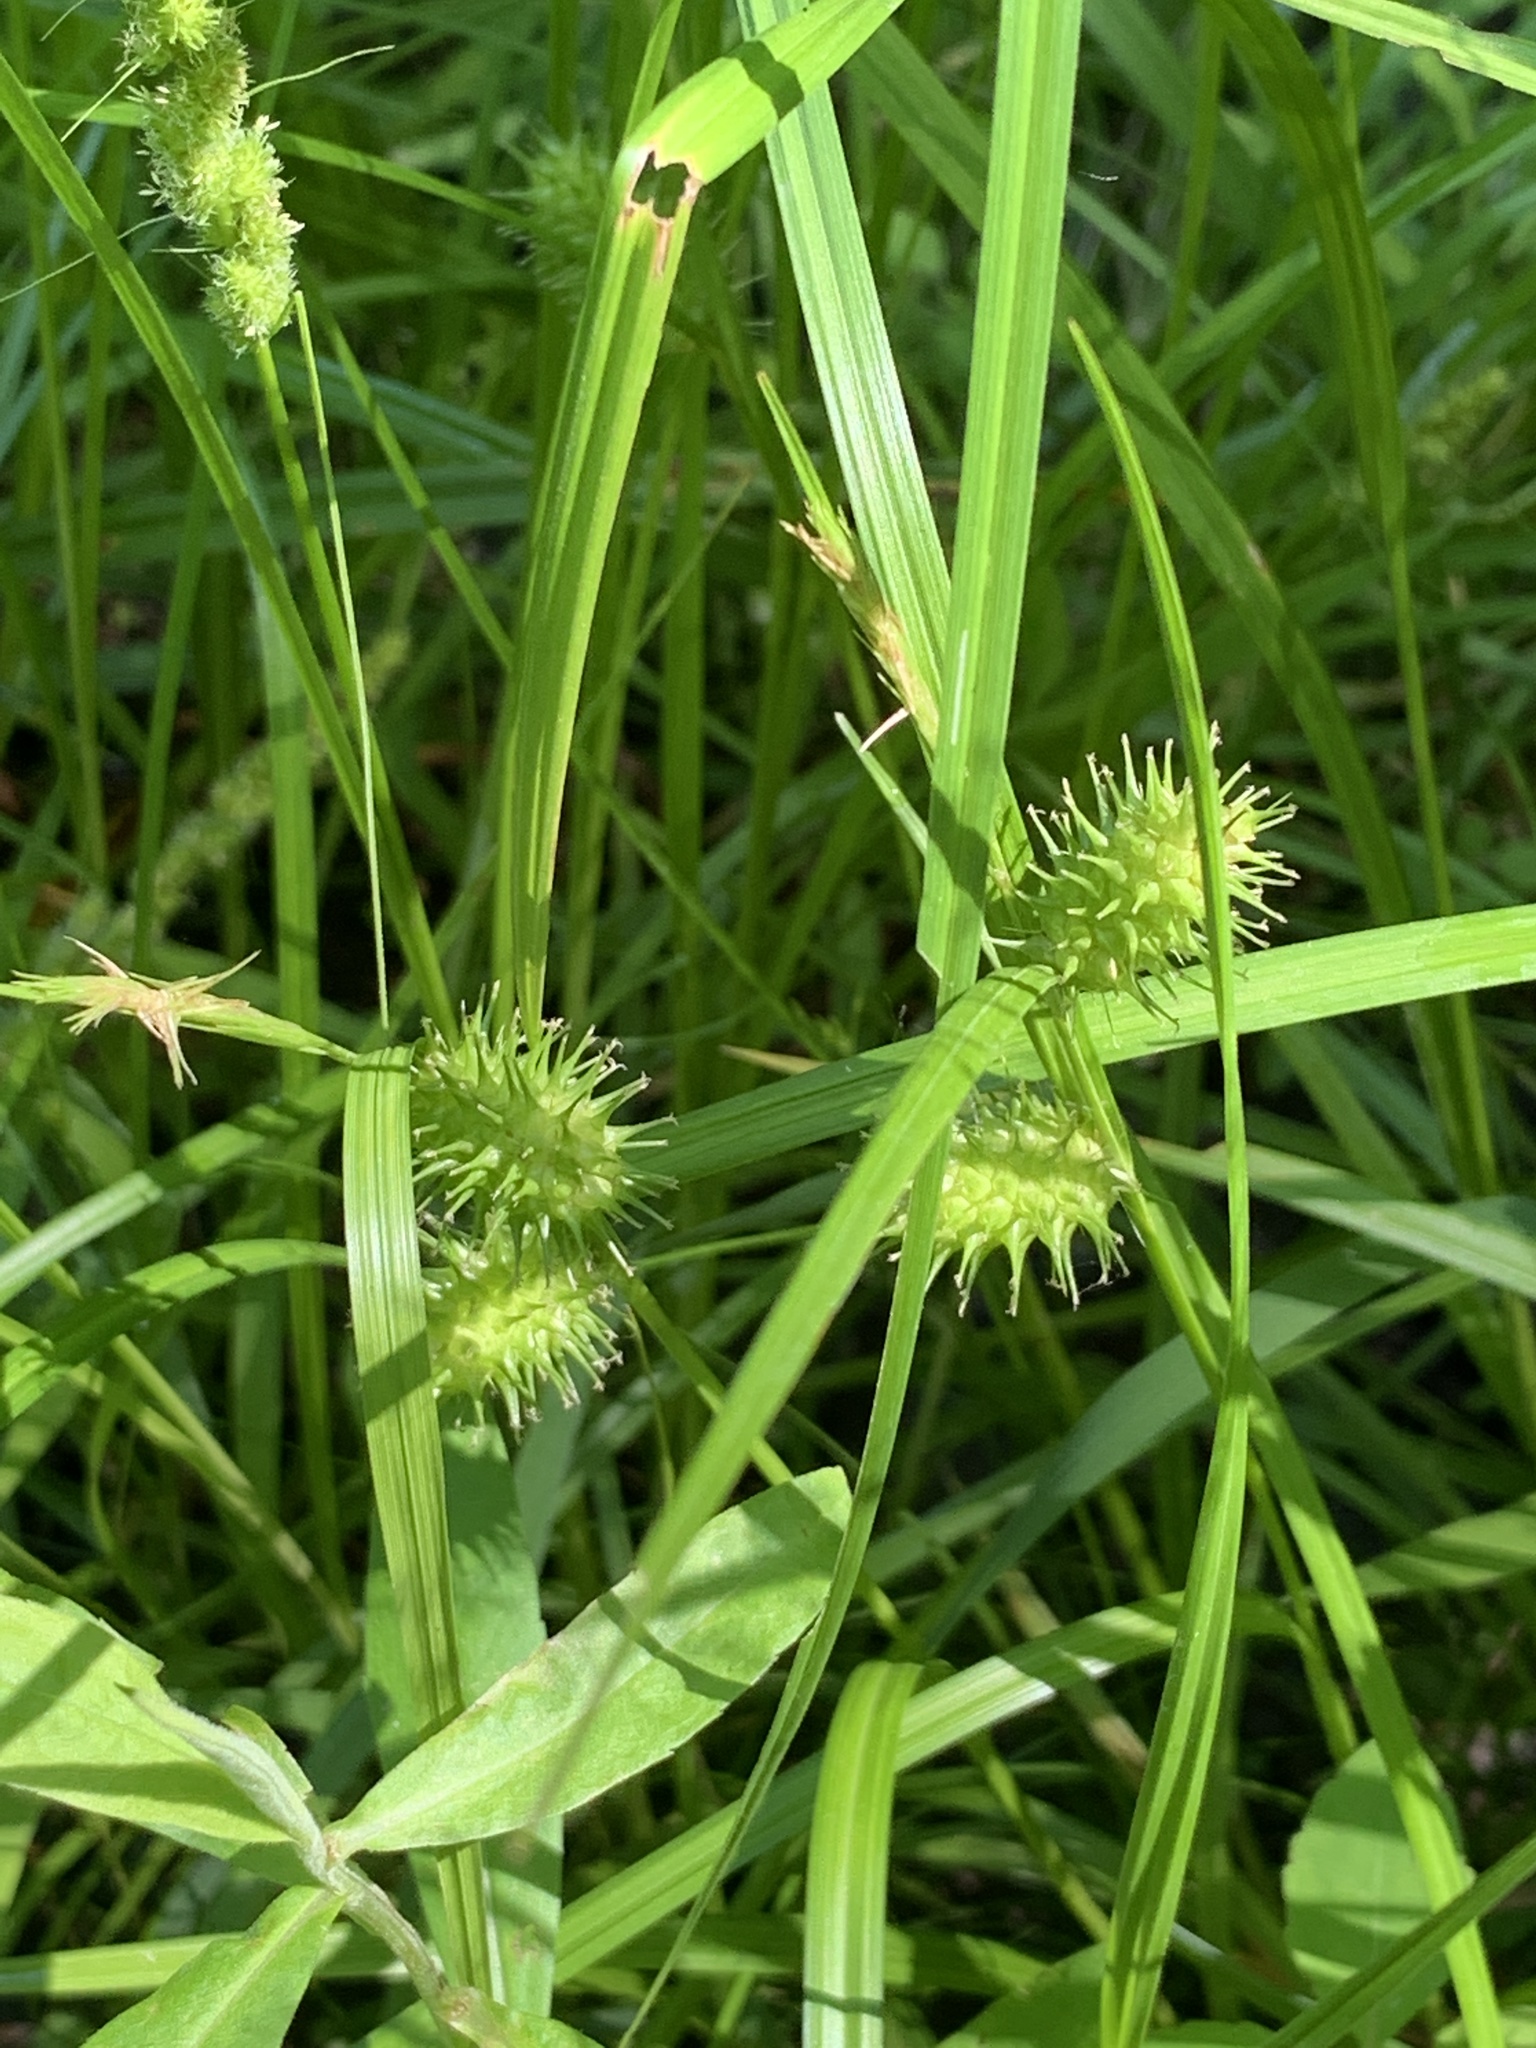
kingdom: Plantae
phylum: Tracheophyta
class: Liliopsida
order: Poales
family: Cyperaceae
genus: Carex
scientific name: Carex lurida
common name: Sallow sedge
